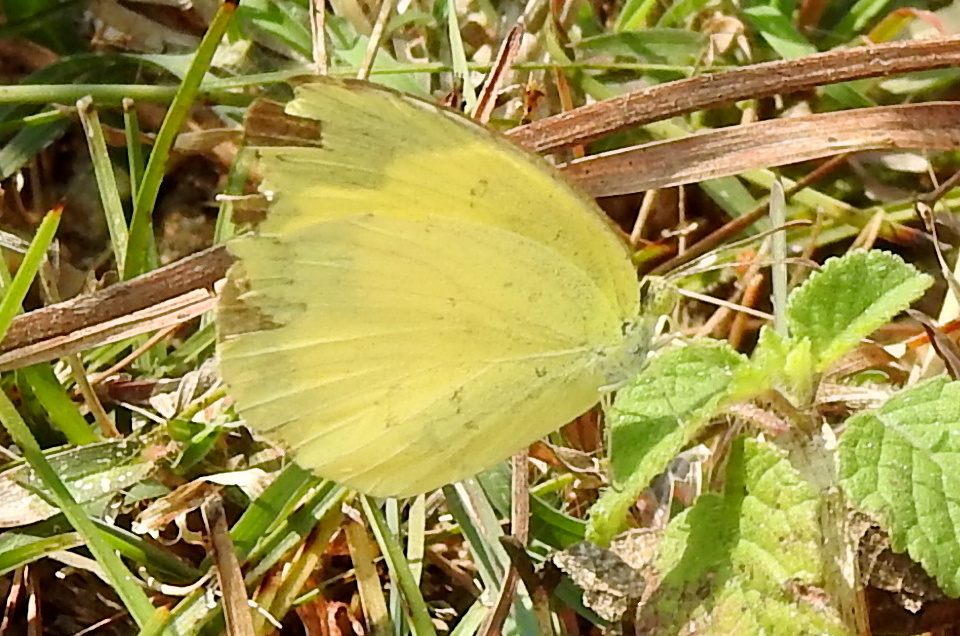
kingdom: Animalia
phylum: Arthropoda
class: Insecta
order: Lepidoptera
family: Pieridae
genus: Eurema
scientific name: Eurema hecabe
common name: Pale grass yellow
